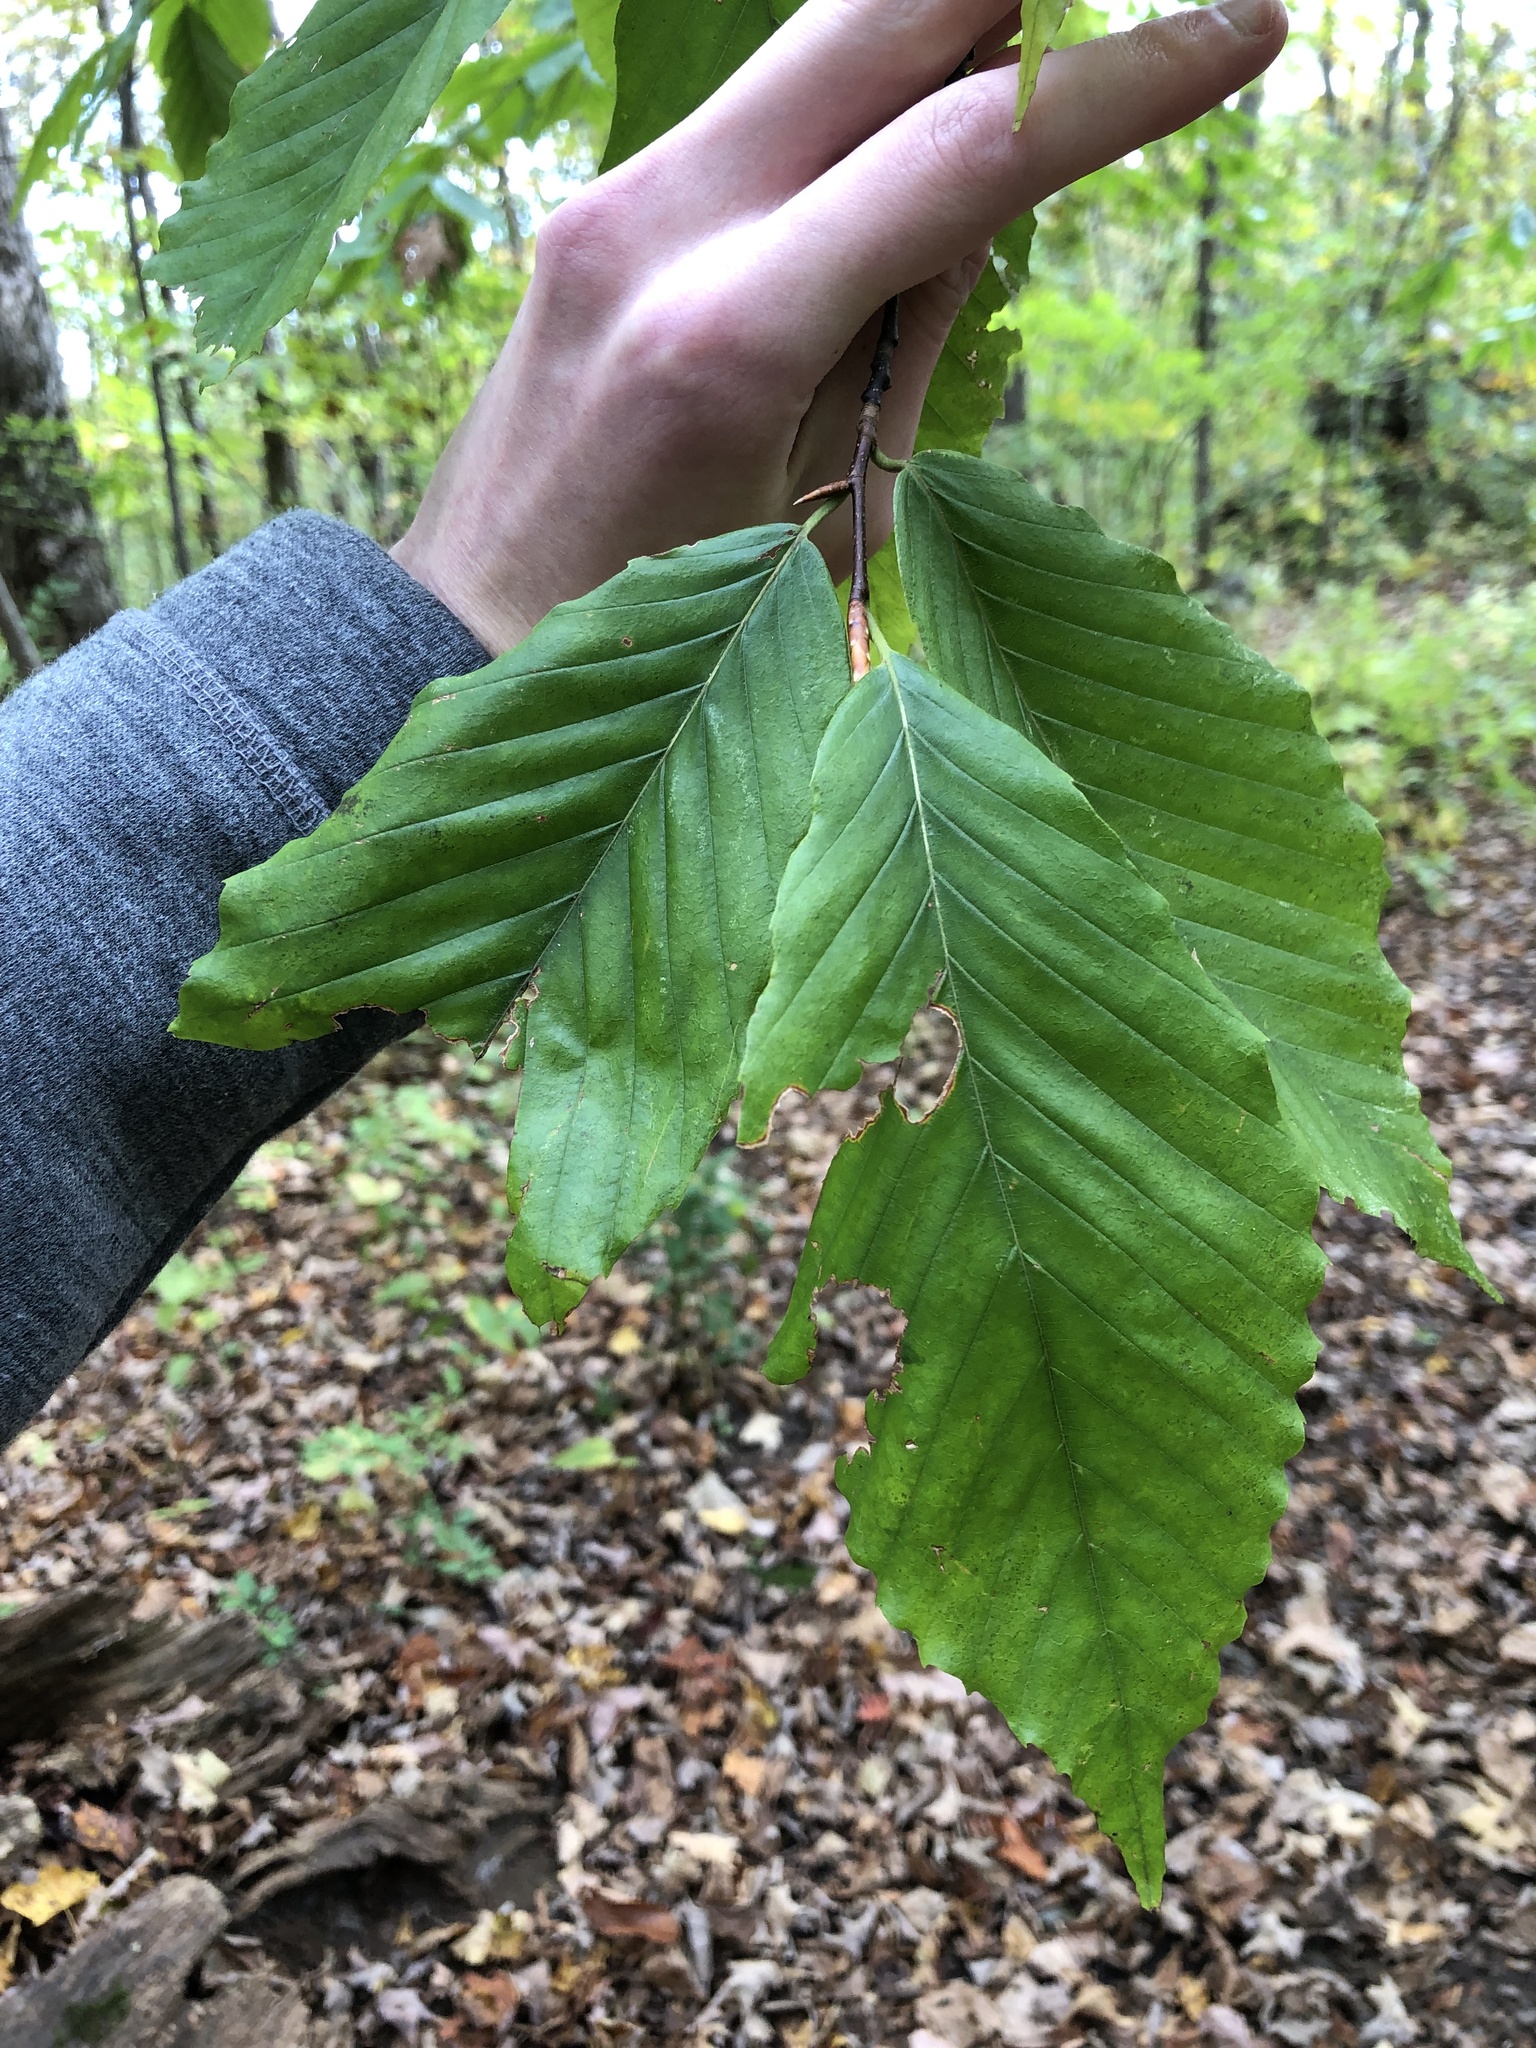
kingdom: Plantae
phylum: Tracheophyta
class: Magnoliopsida
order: Fagales
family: Fagaceae
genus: Fagus
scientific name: Fagus grandifolia
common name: American beech
